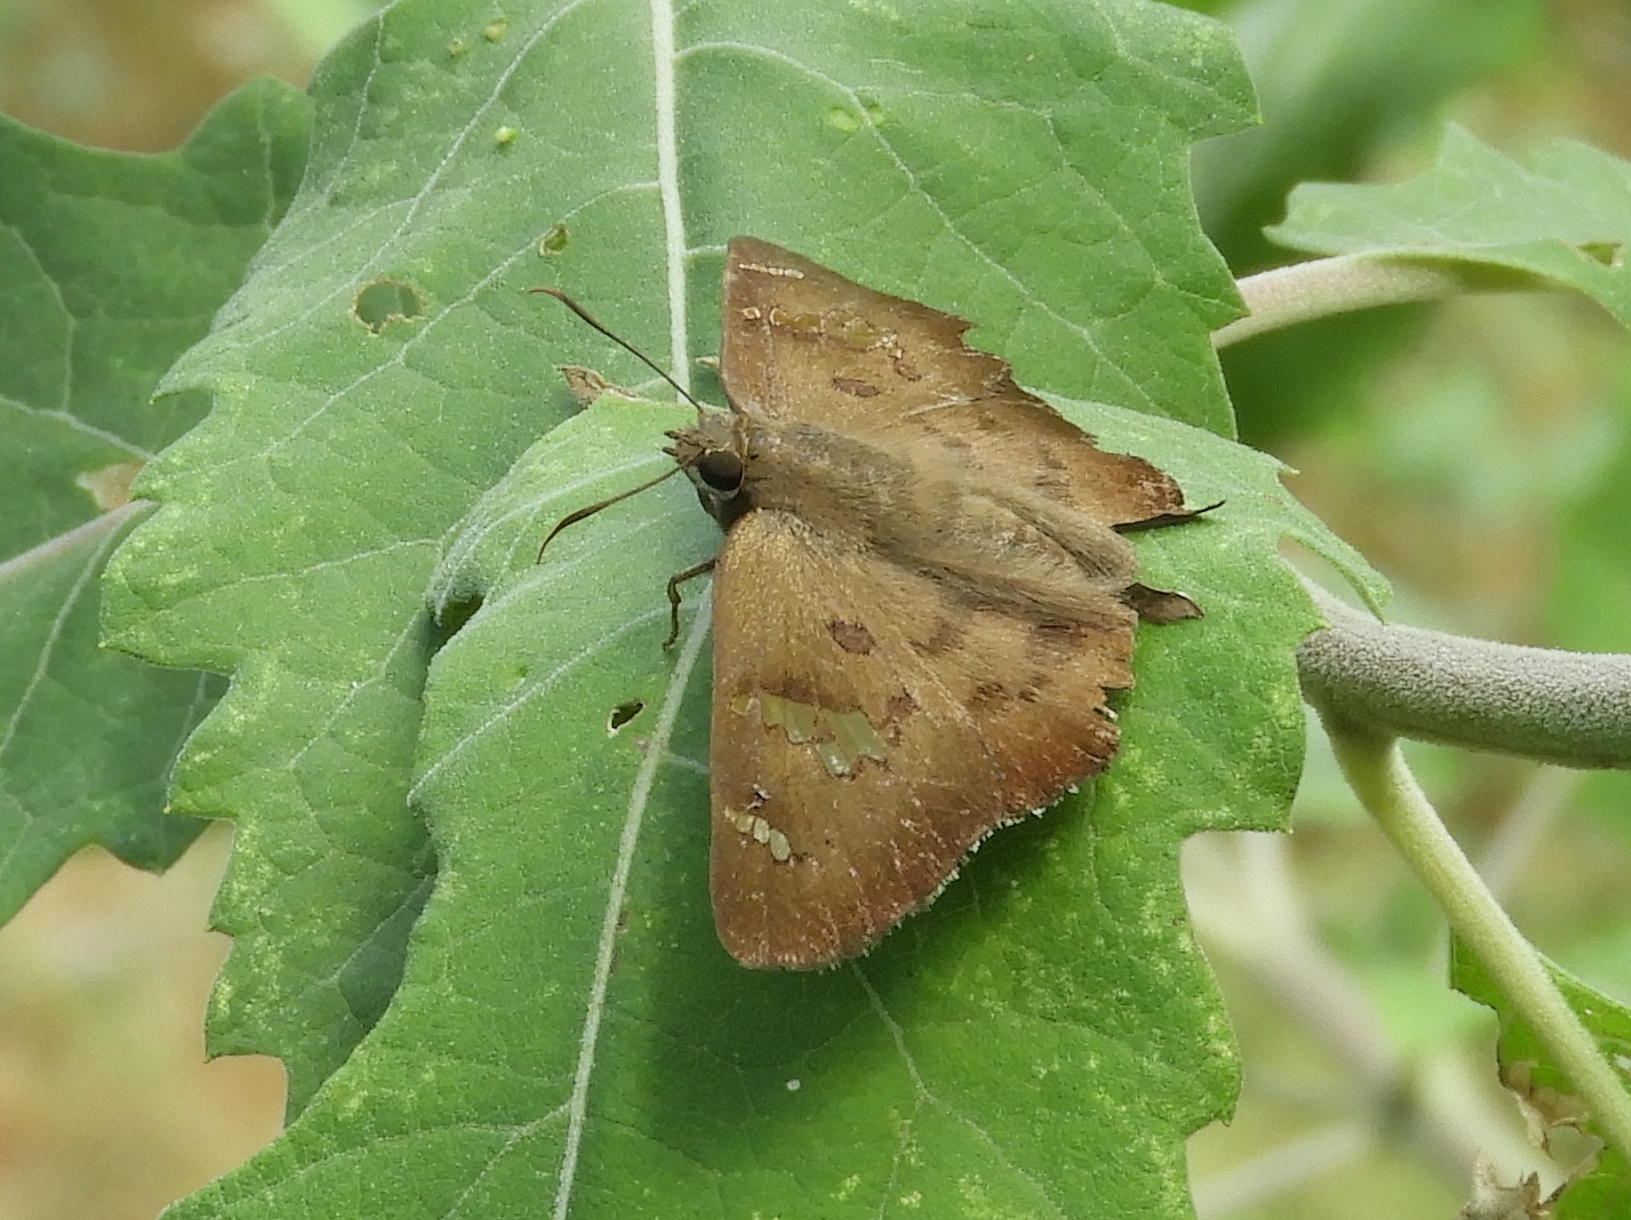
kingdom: Animalia
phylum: Arthropoda
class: Insecta
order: Lepidoptera
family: Hesperiidae
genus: Ectomis
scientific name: Ectomis
